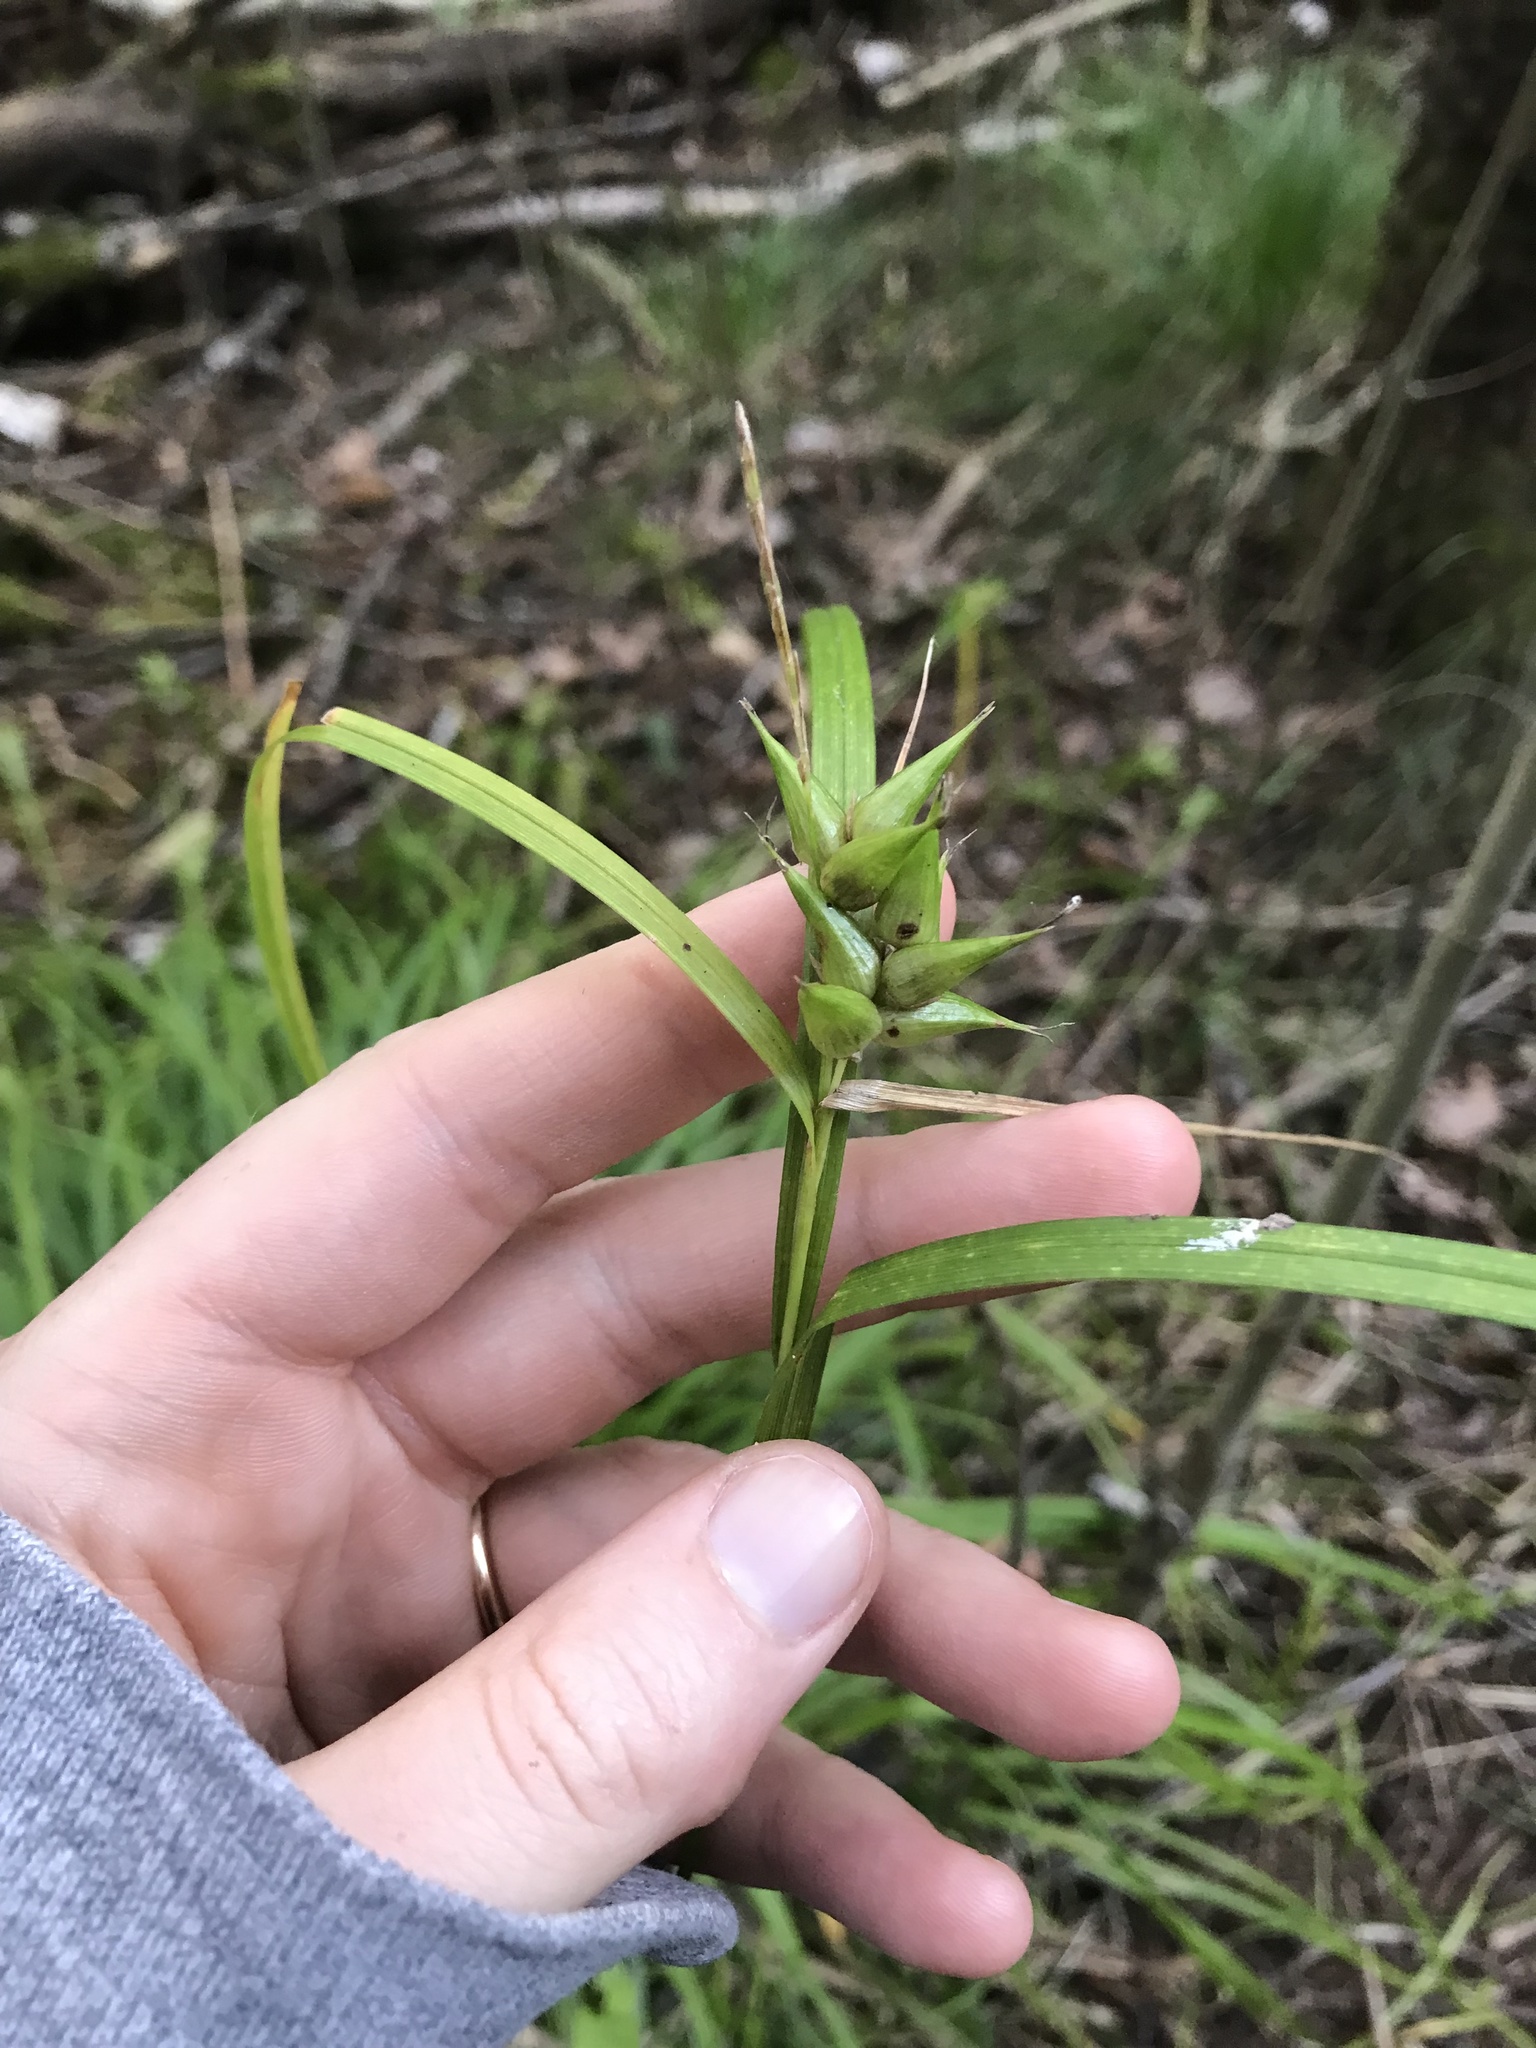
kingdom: Plantae
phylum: Tracheophyta
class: Liliopsida
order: Poales
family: Cyperaceae
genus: Carex
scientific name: Carex intumescens
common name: Greater bladder sedge
